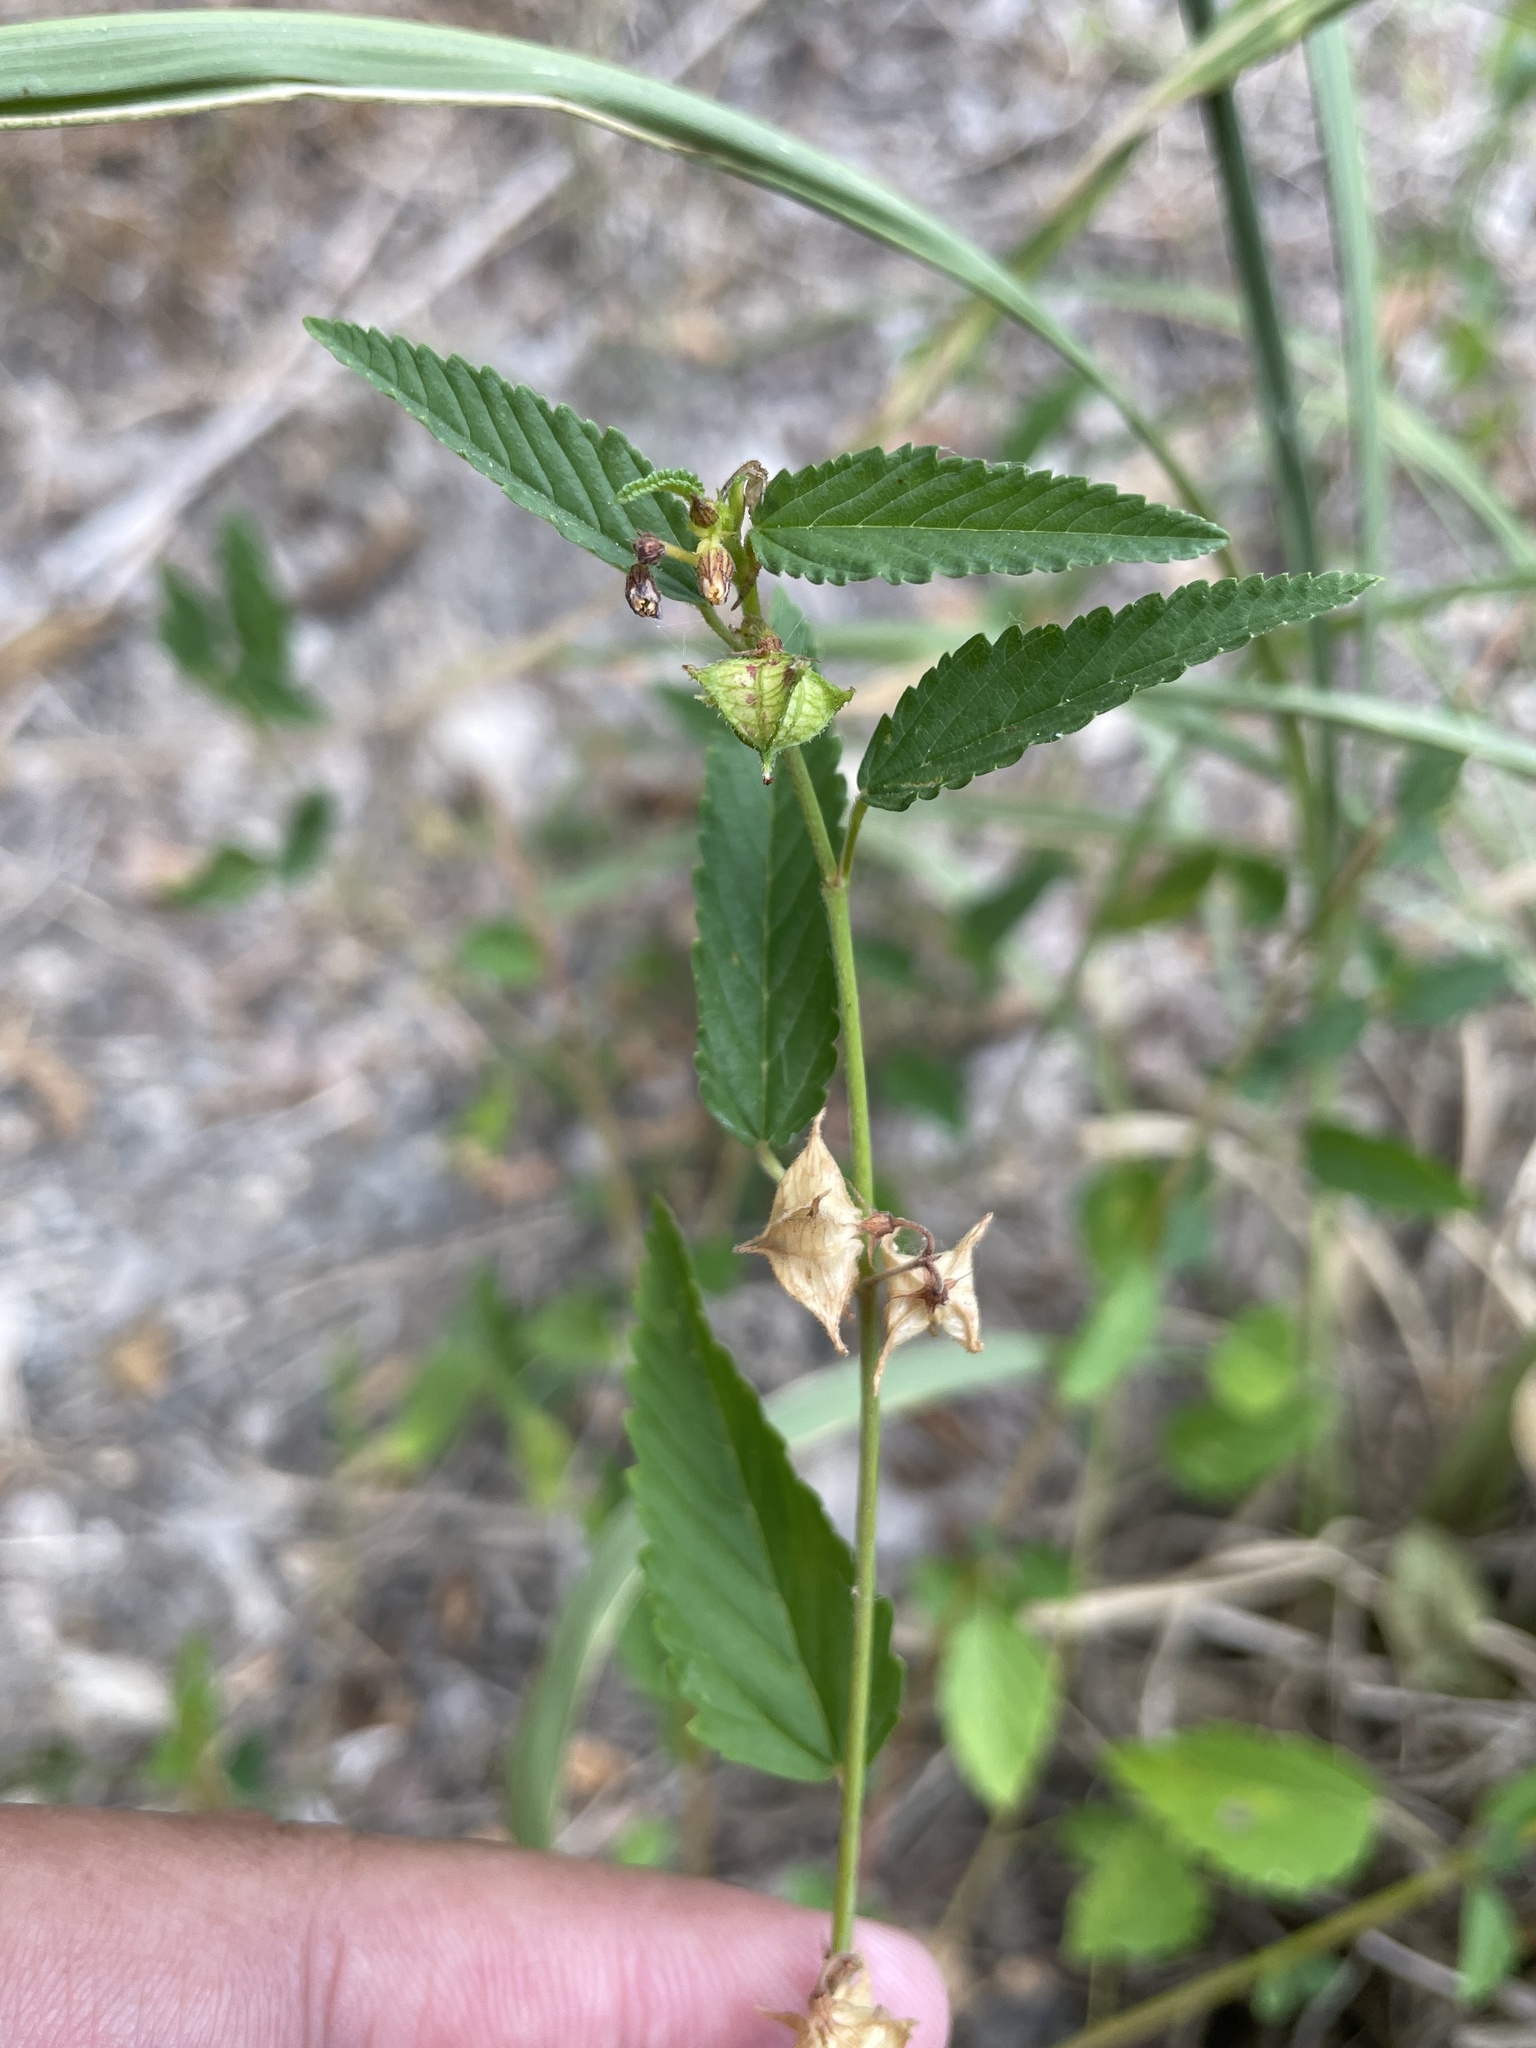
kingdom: Plantae
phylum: Tracheophyta
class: Magnoliopsida
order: Malvales
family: Malvaceae
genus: Melochia
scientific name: Melochia pyramidata
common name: Pyramidflower
